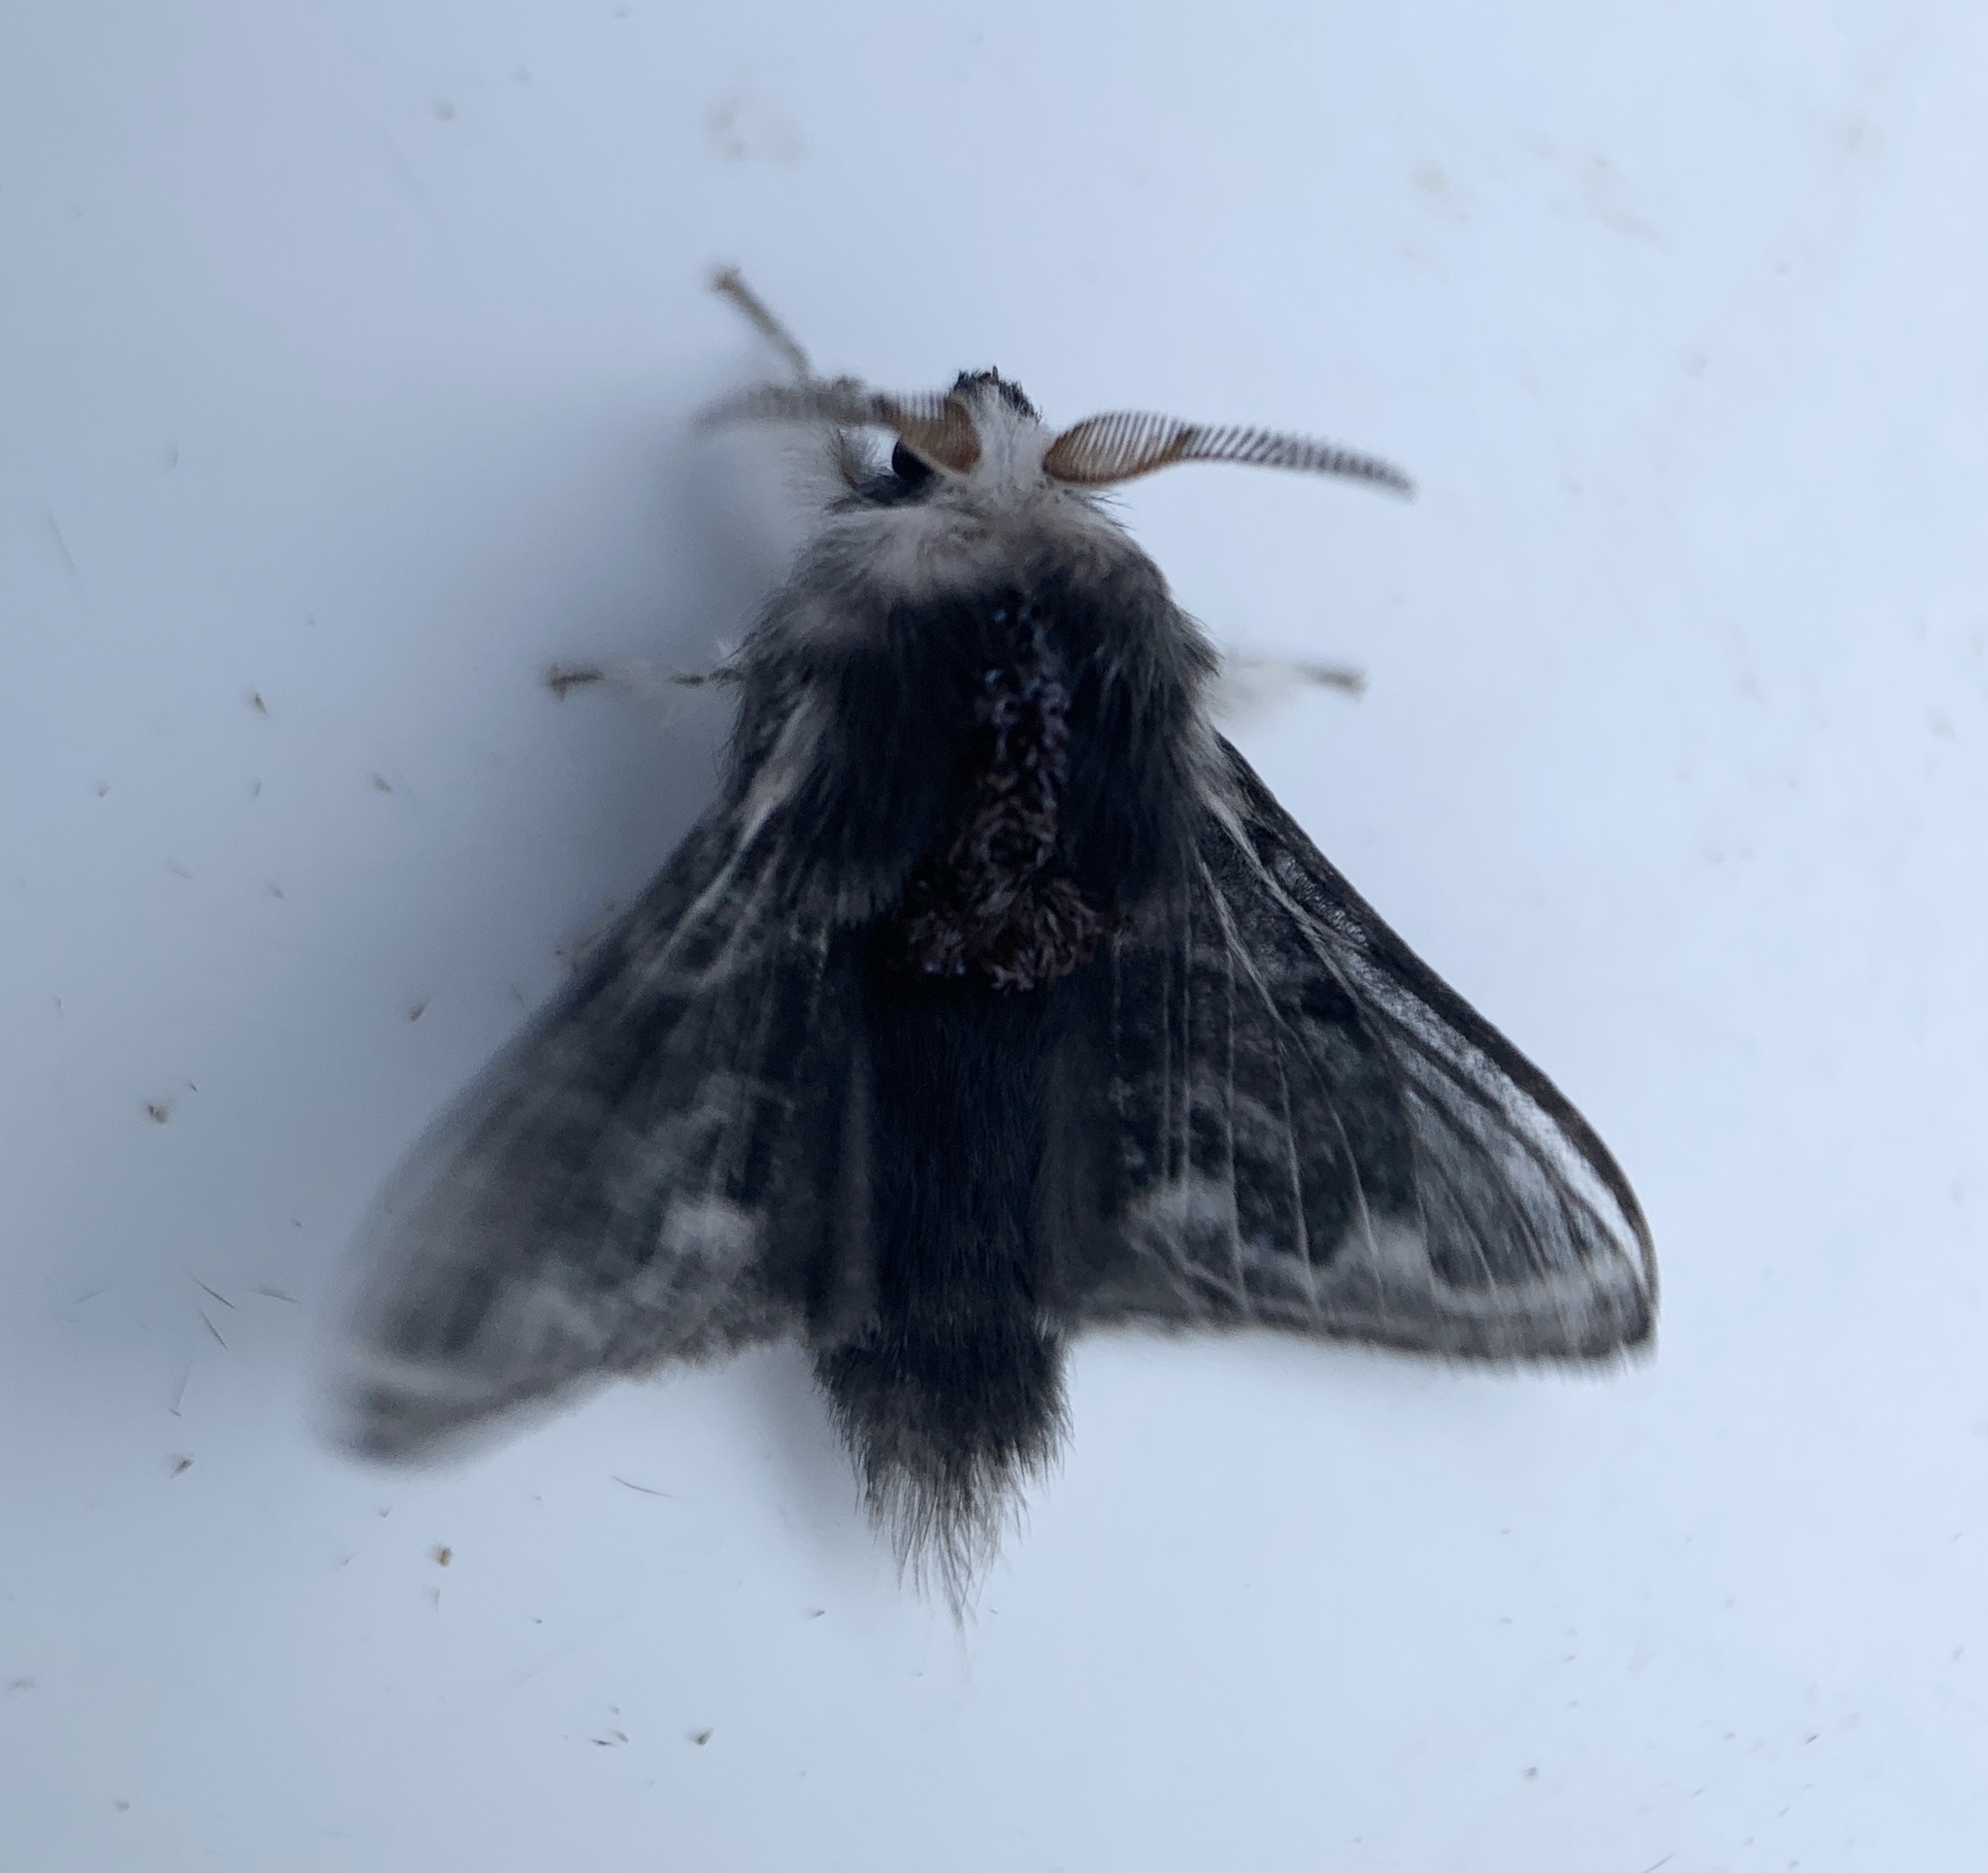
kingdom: Animalia
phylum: Arthropoda
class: Insecta
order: Lepidoptera
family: Lasiocampidae
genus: Tolype
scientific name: Tolype laricis
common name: Larch tolype moth
